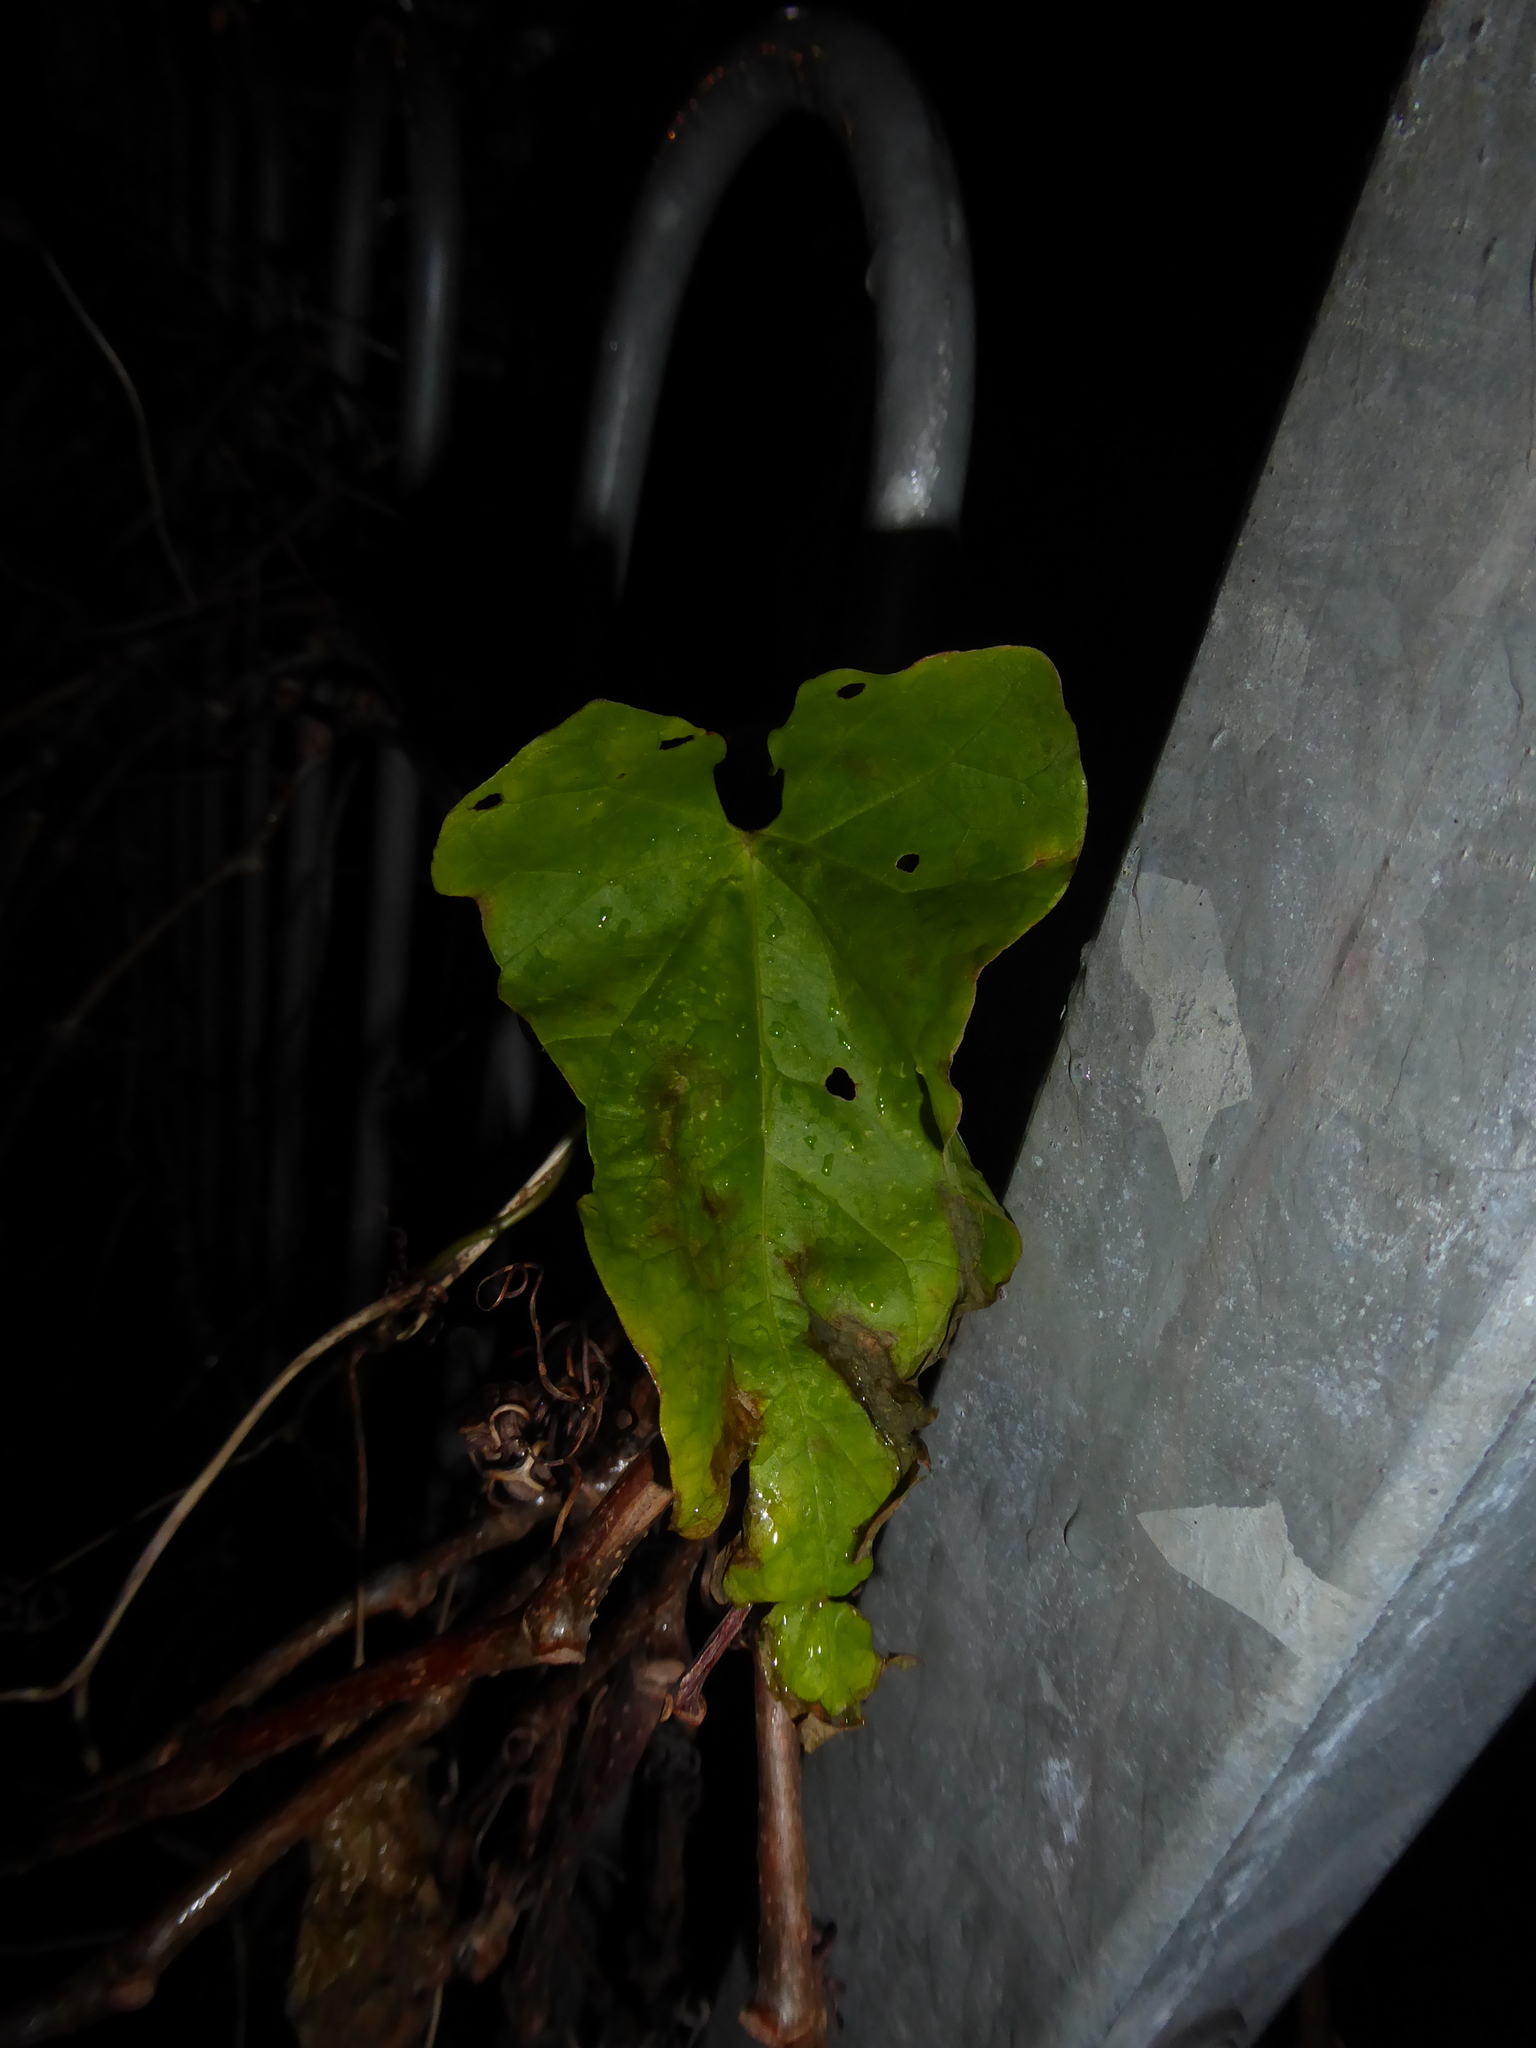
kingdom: Plantae
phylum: Tracheophyta
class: Magnoliopsida
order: Solanales
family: Convolvulaceae
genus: Calystegia
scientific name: Calystegia
